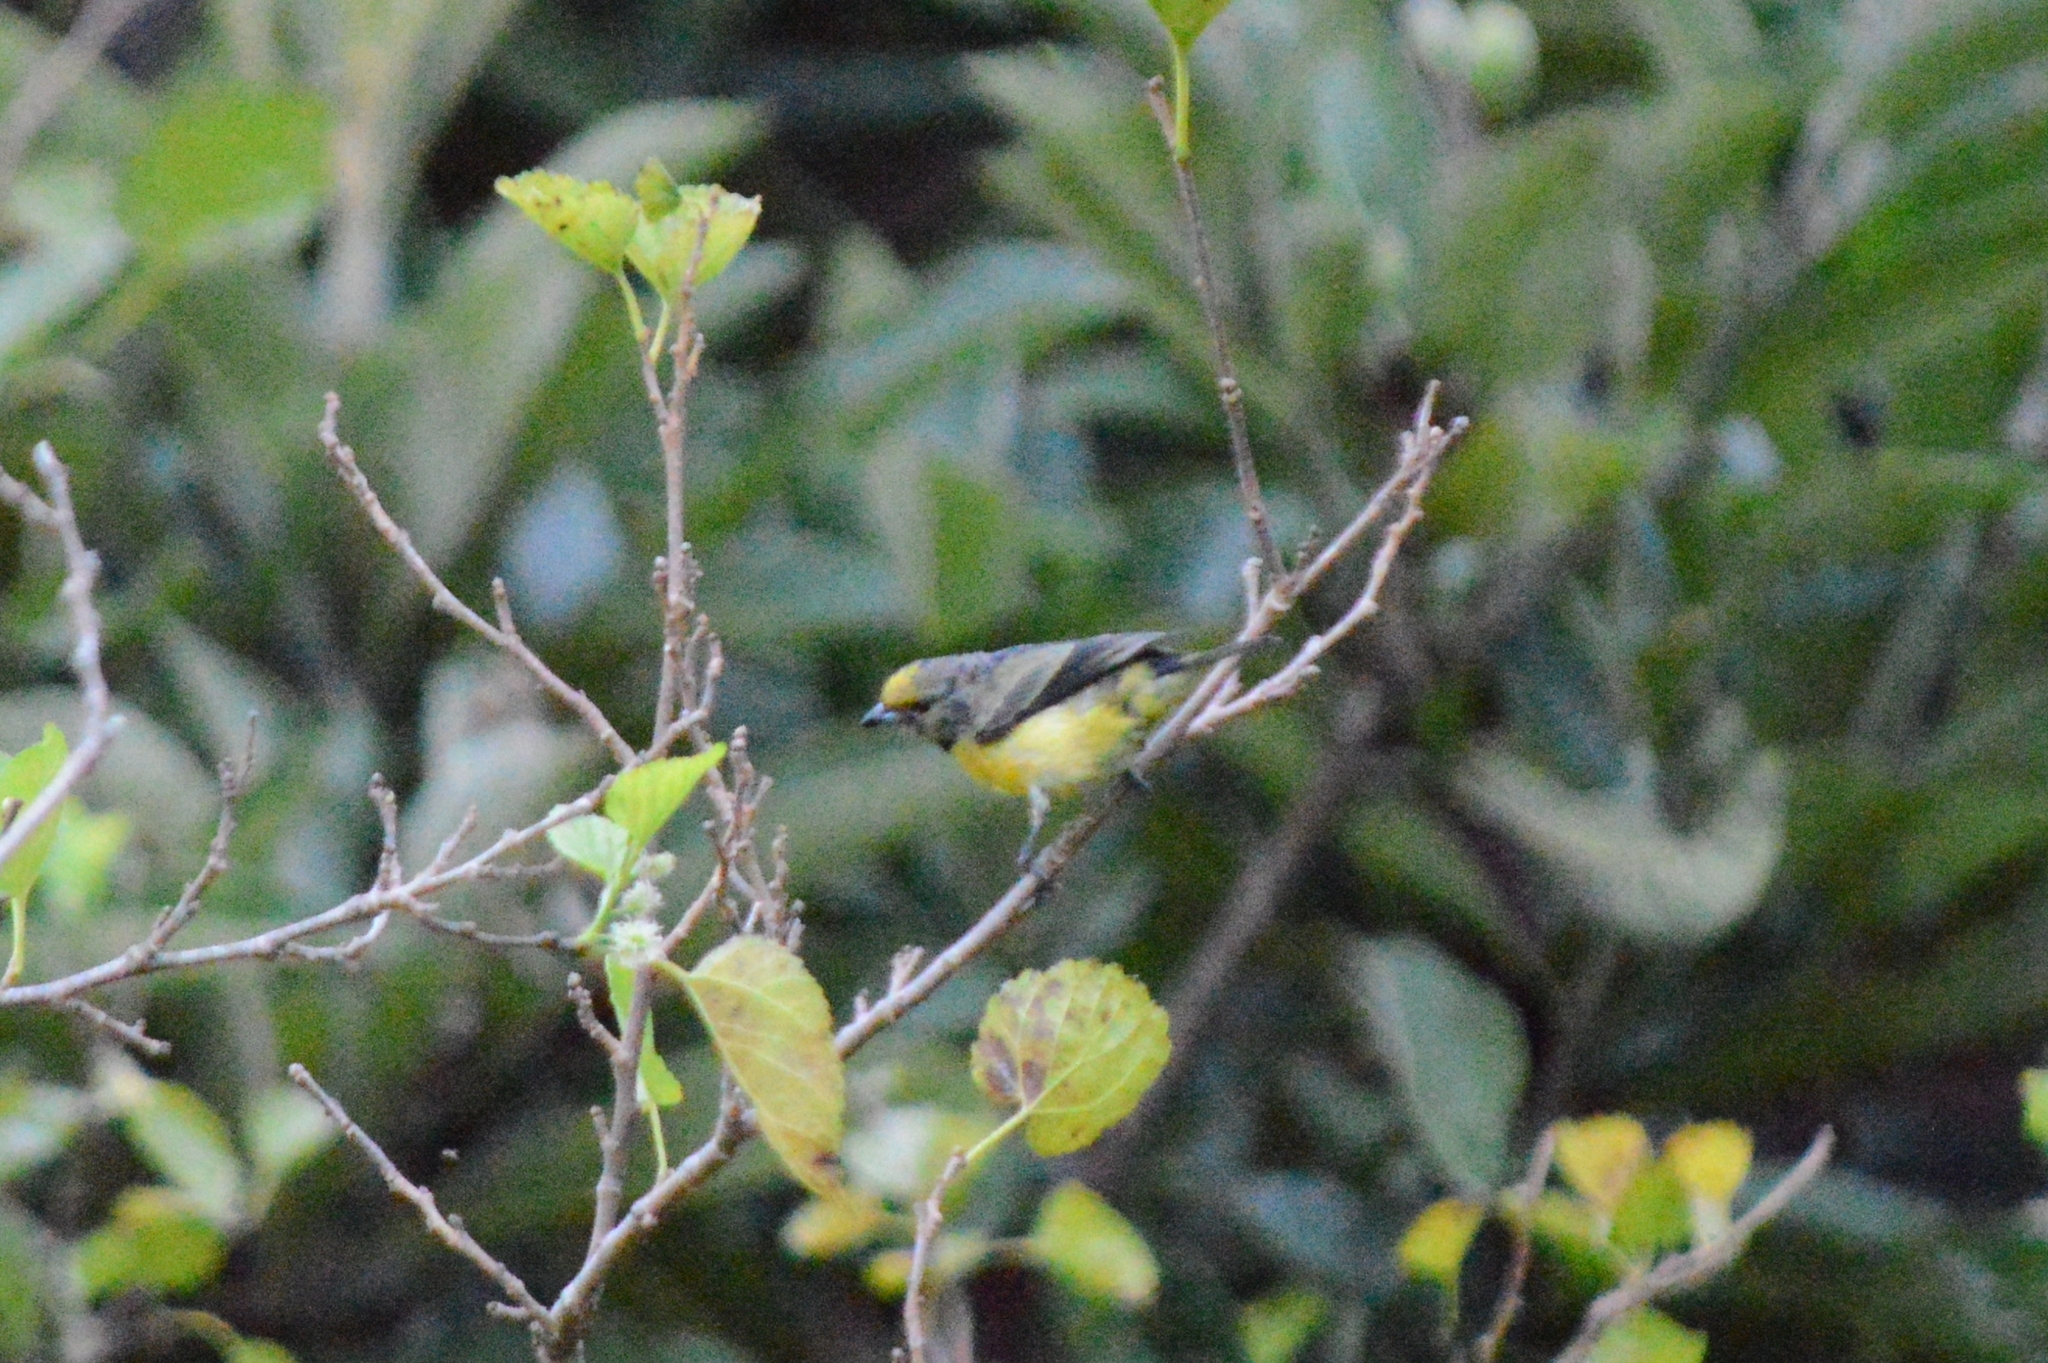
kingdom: Animalia
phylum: Chordata
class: Aves
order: Passeriformes
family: Fringillidae
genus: Euphonia
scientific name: Euphonia chlorotica
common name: Purple-throated euphonia
